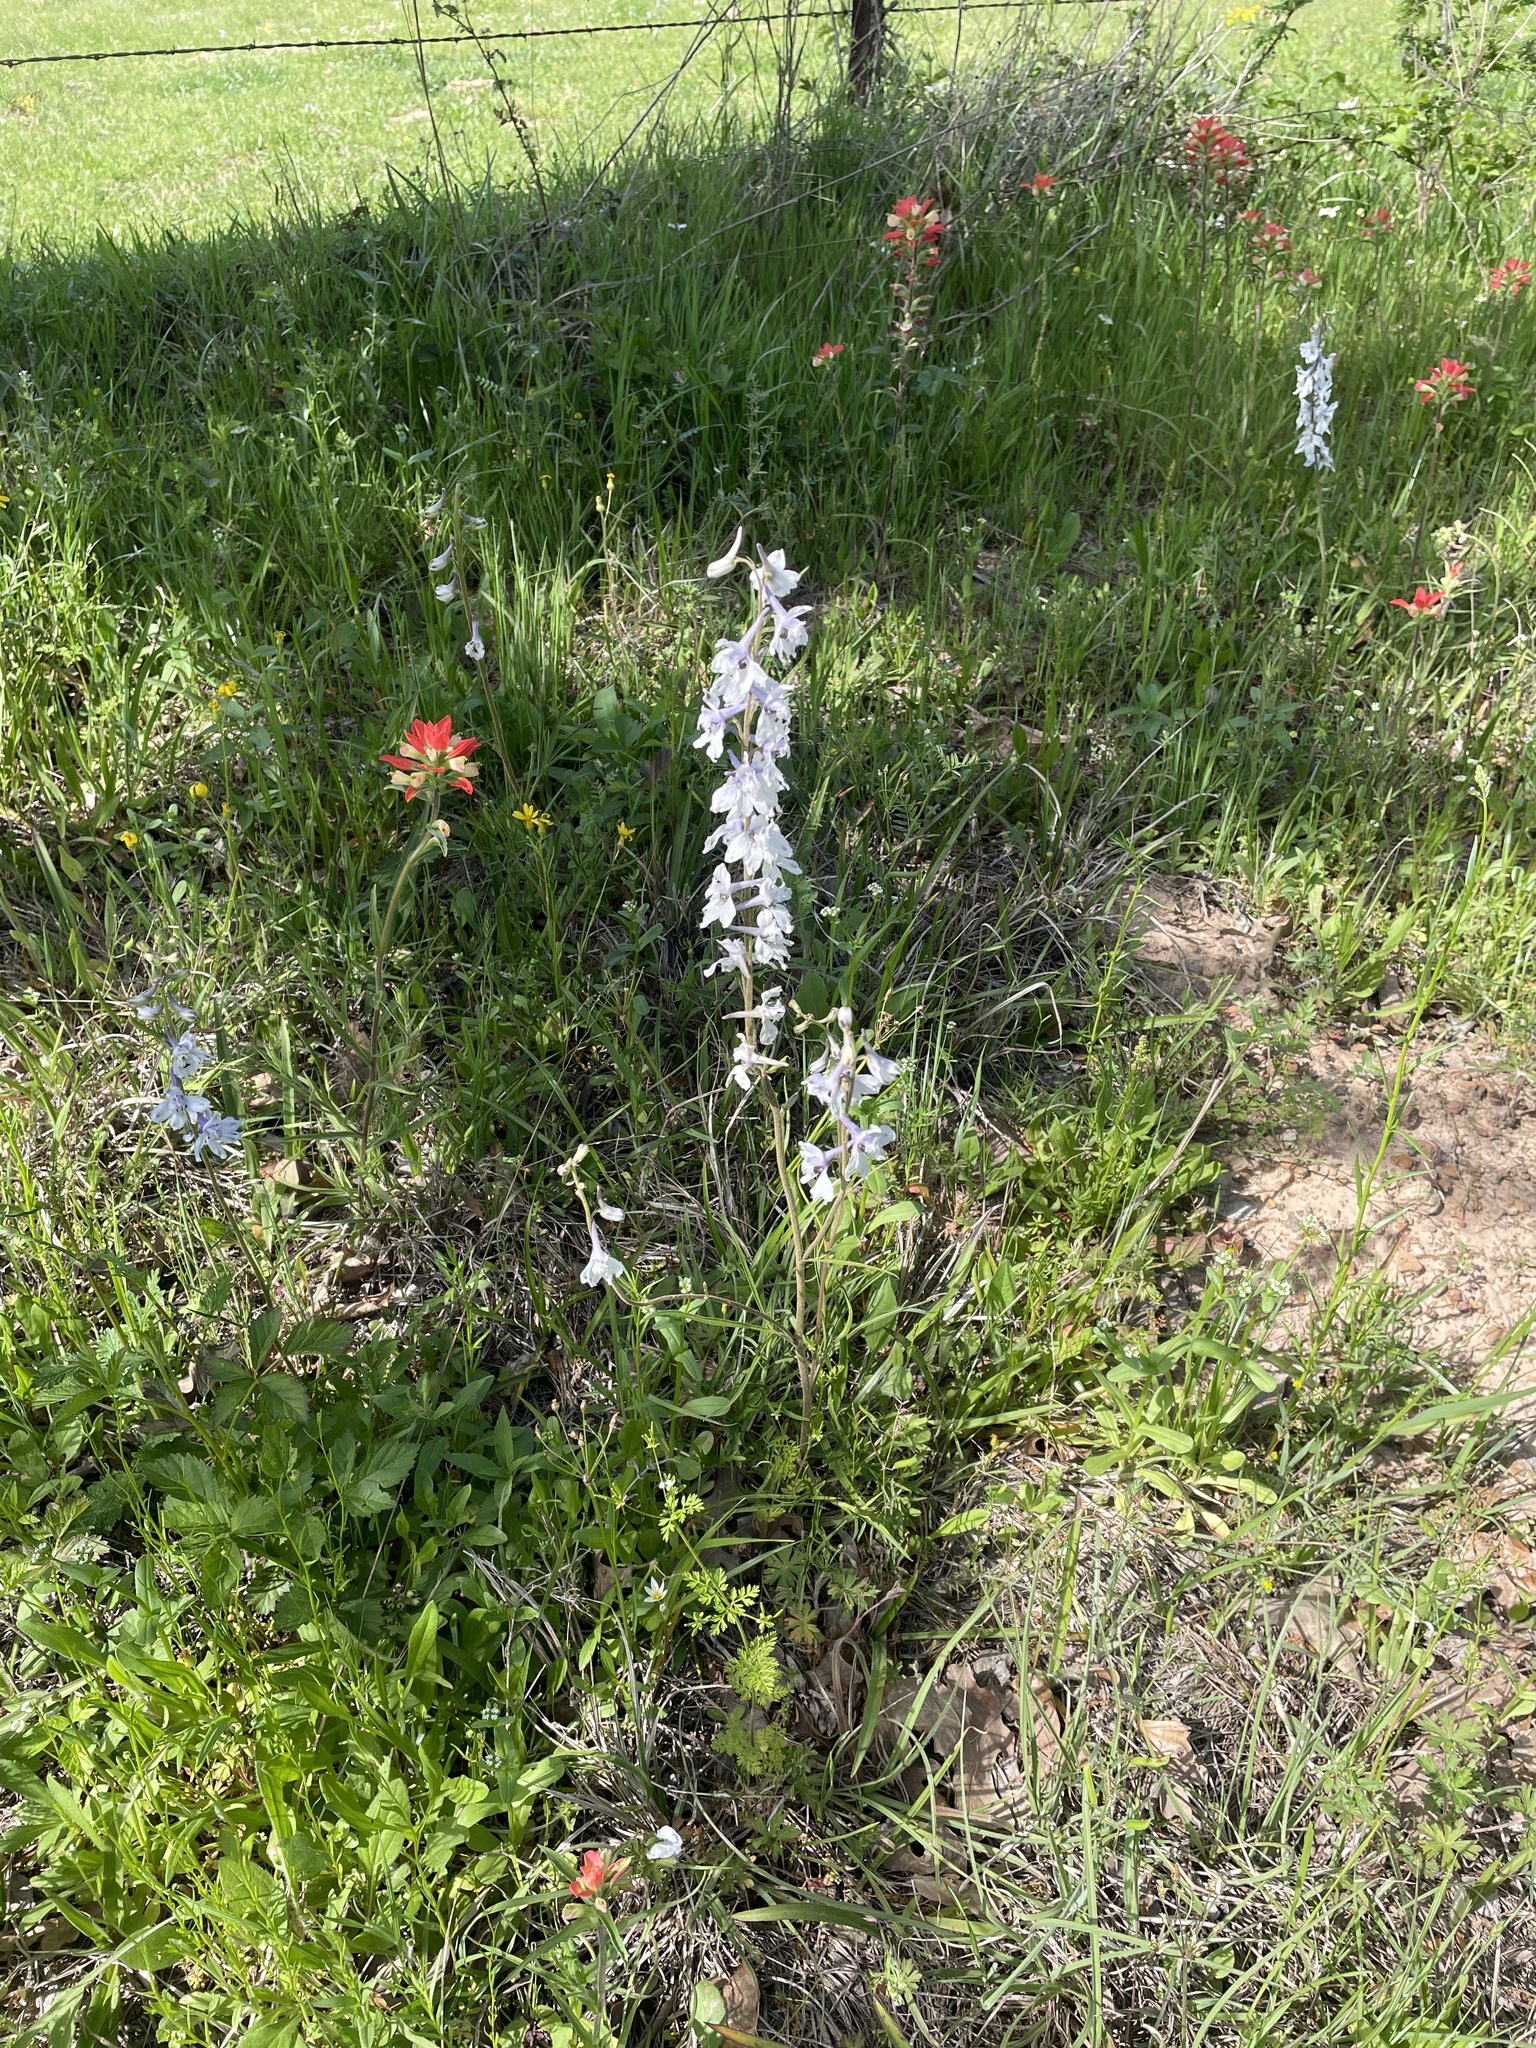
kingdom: Plantae
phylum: Tracheophyta
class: Magnoliopsida
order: Ranunculales
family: Ranunculaceae
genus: Delphinium
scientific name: Delphinium carolinianum
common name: Carolina larkspur
